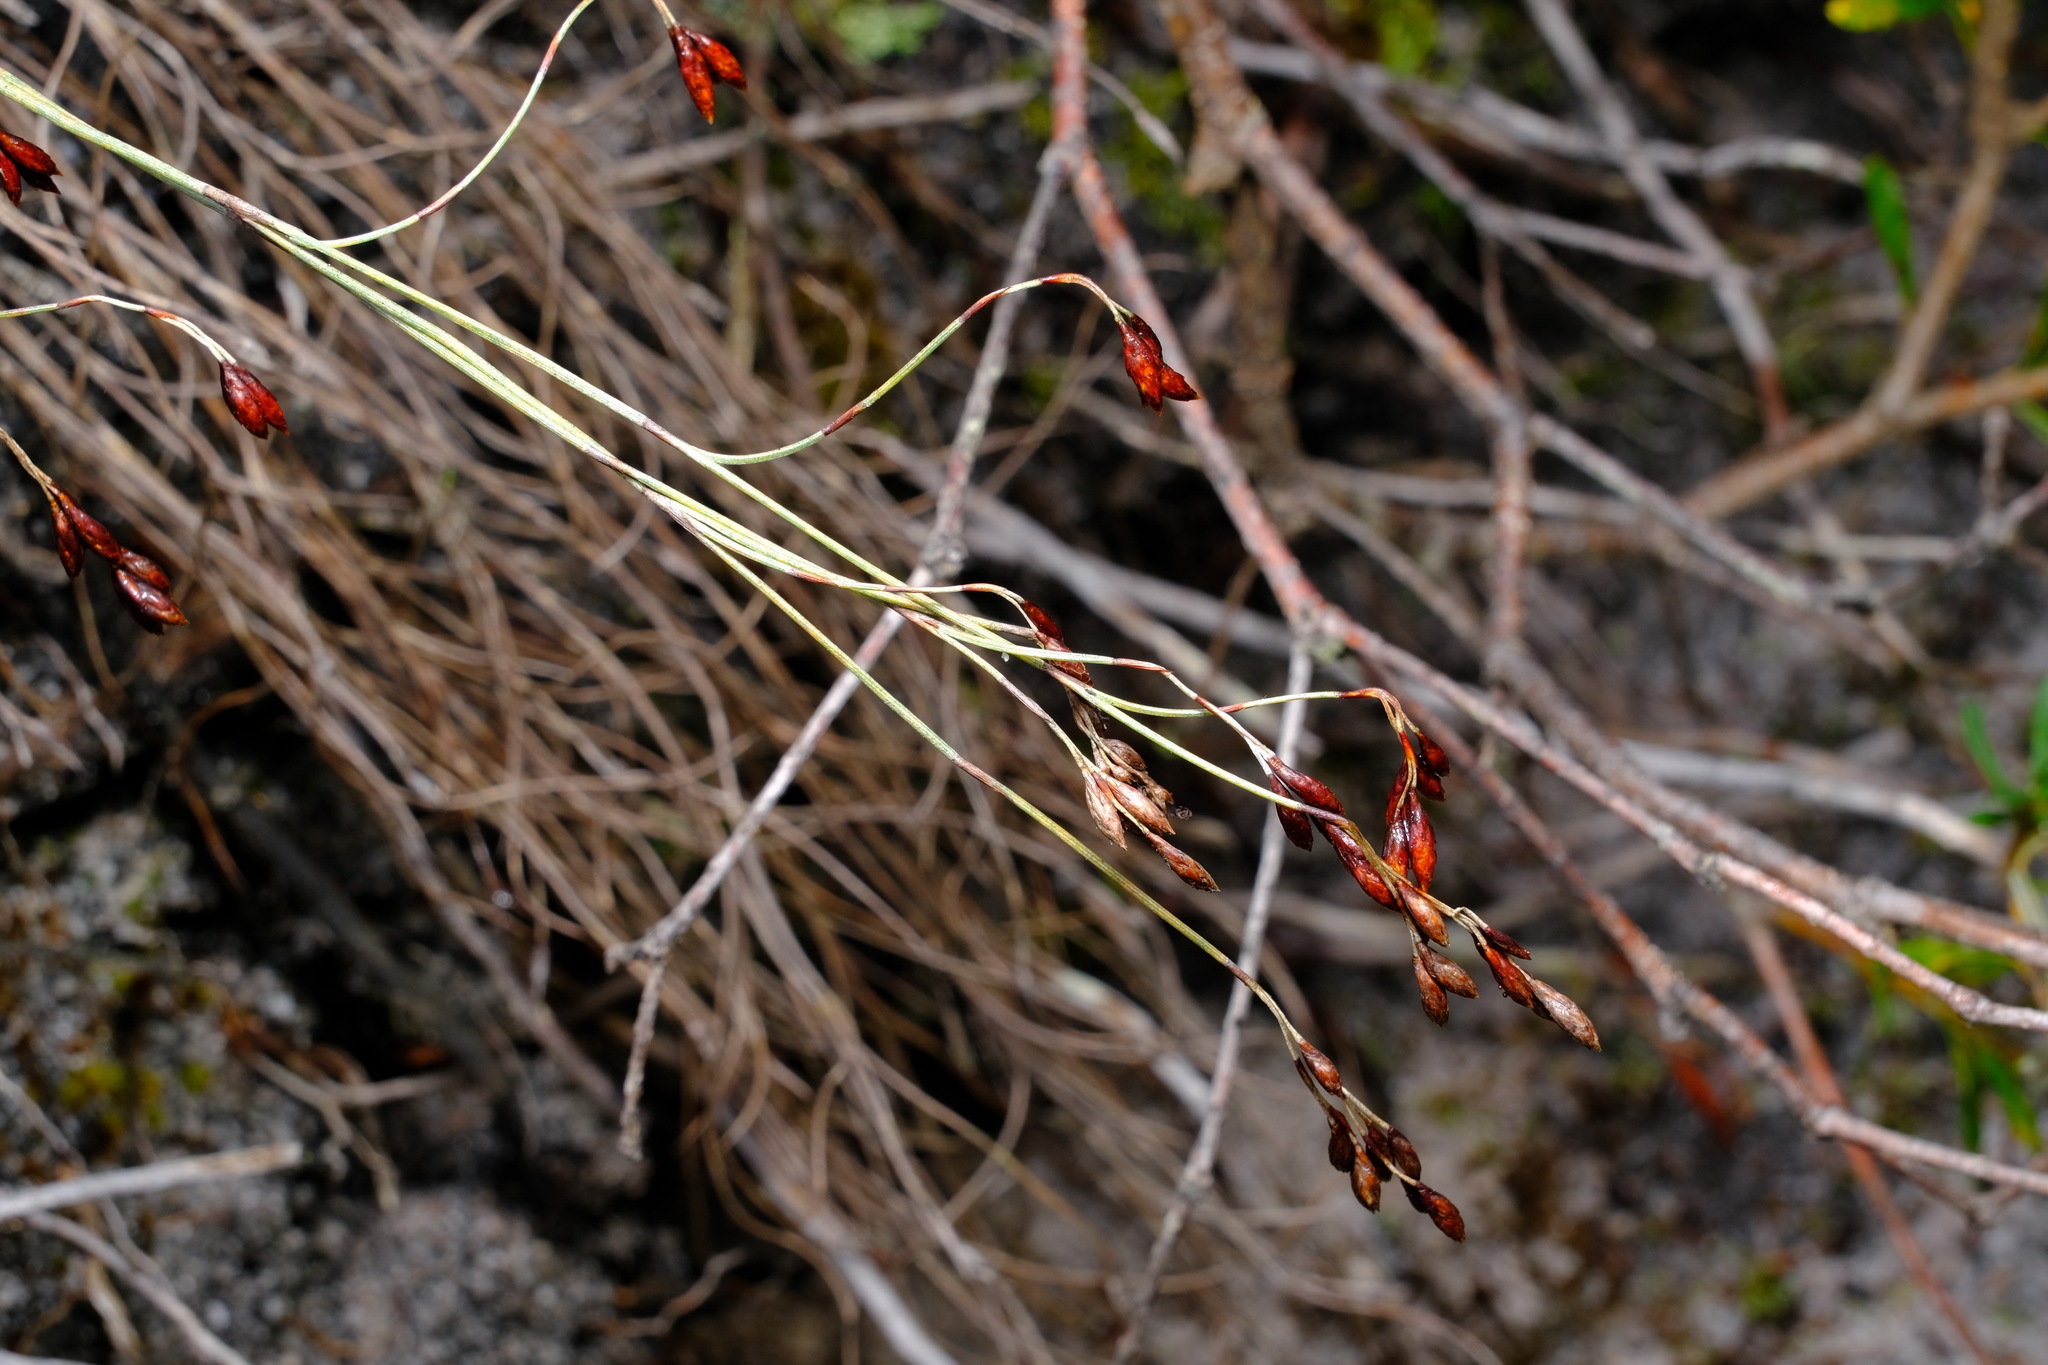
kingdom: Plantae
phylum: Tracheophyta
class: Liliopsida
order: Poales
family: Restionaceae
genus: Hypolaena
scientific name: Hypolaena fastigiata
